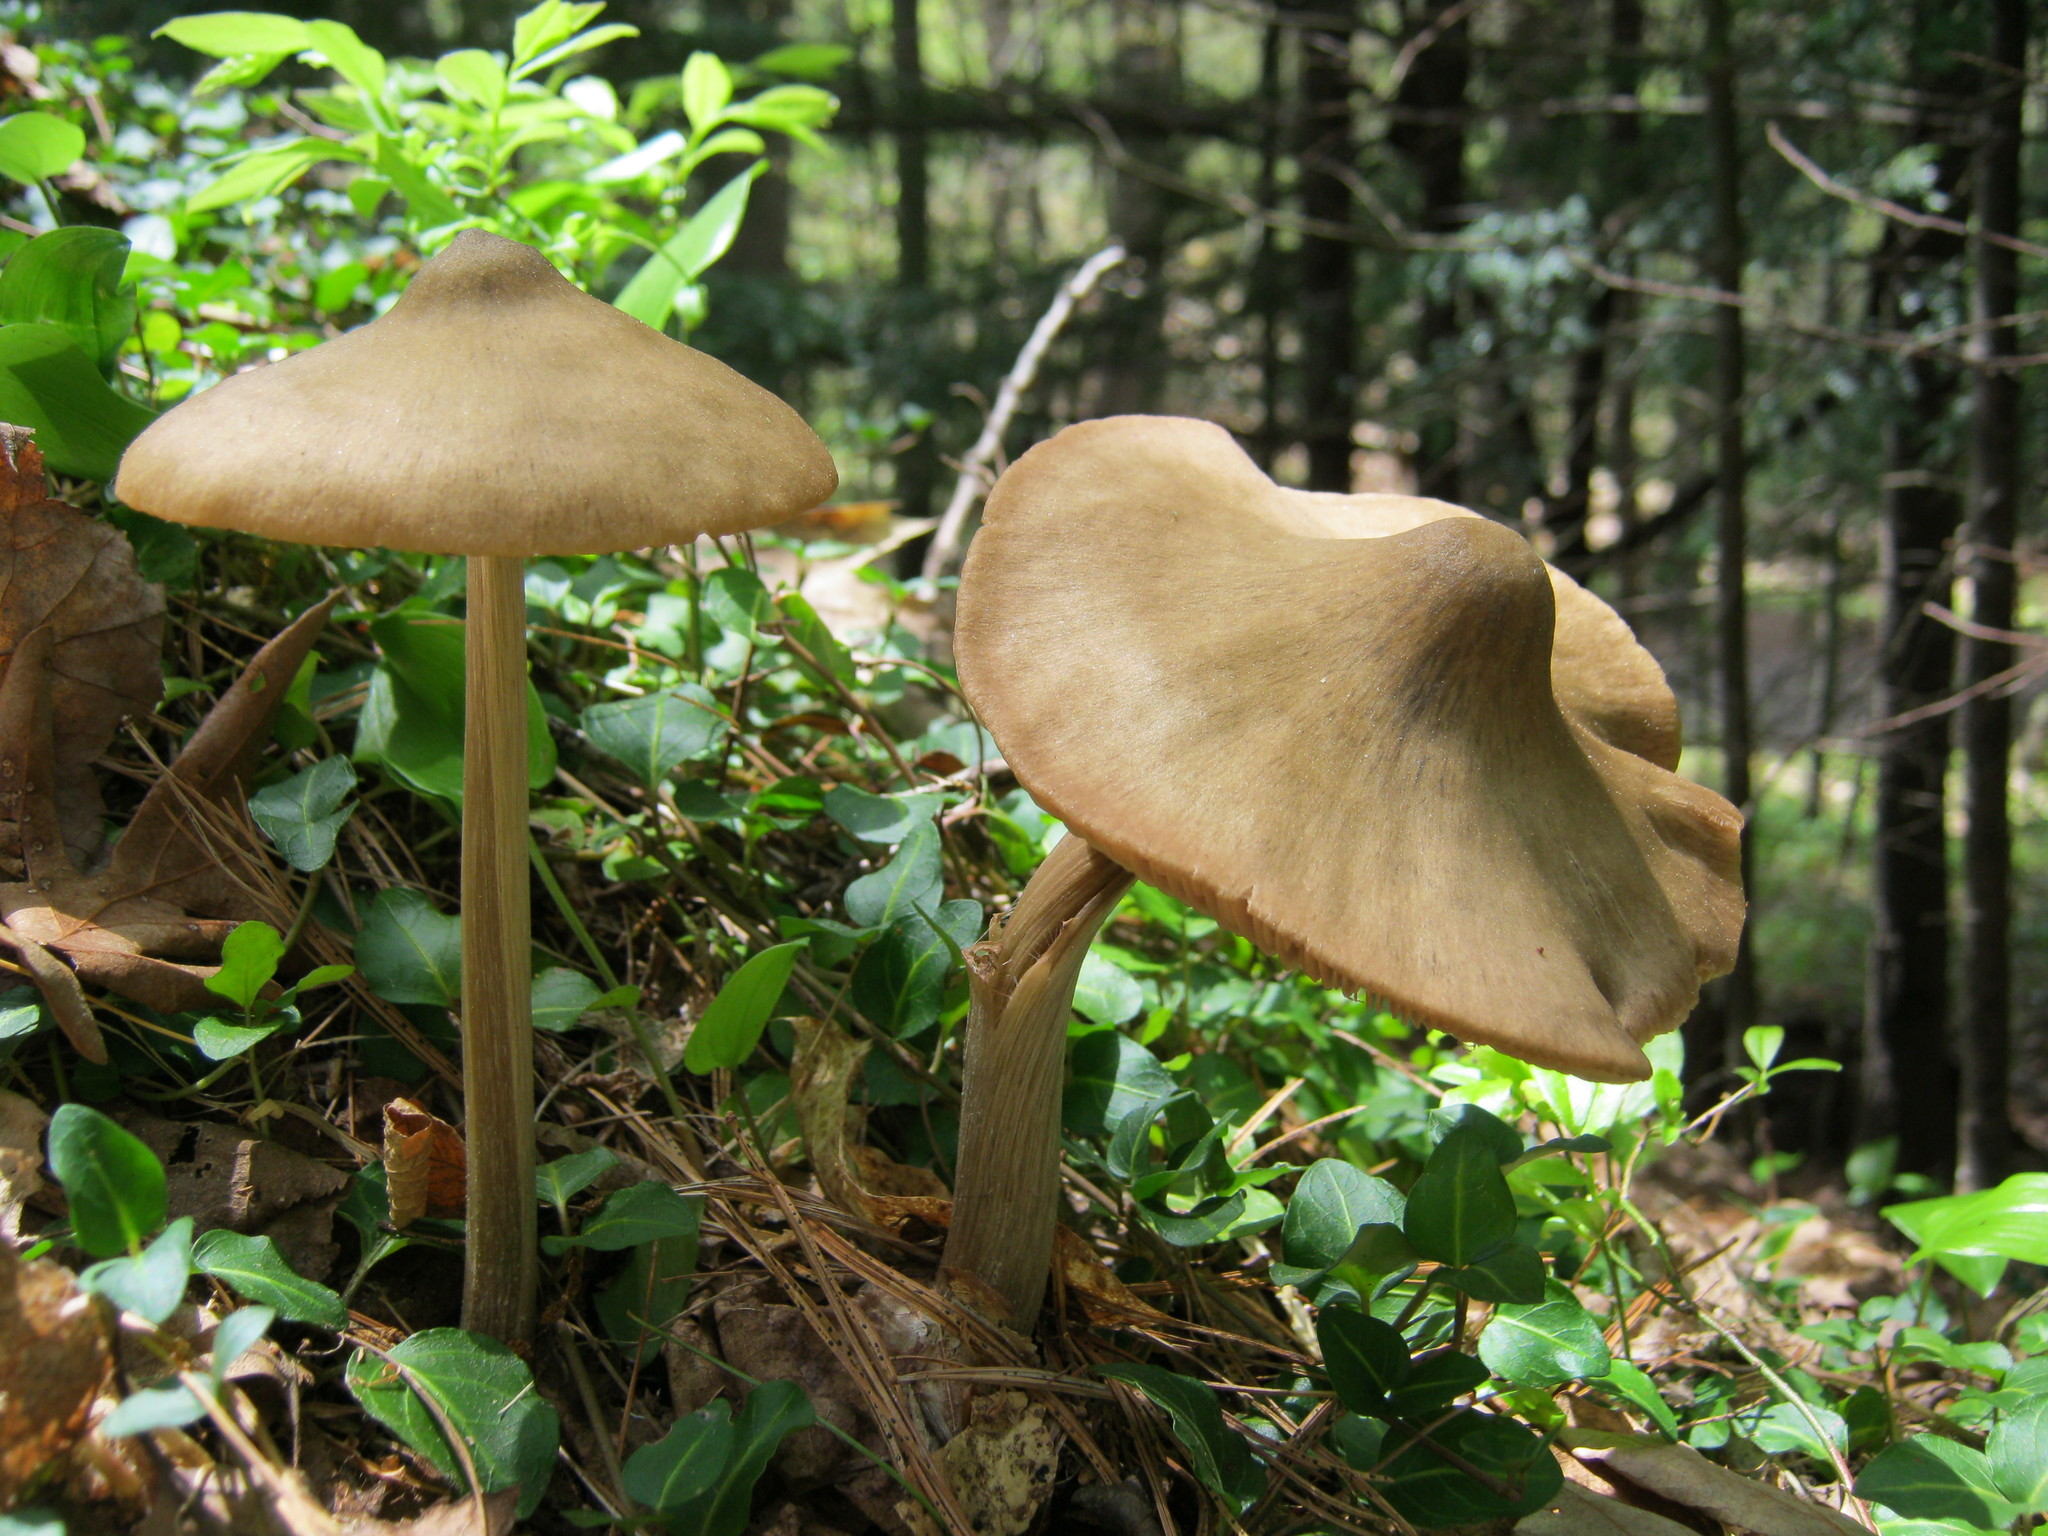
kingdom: Fungi
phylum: Basidiomycota
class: Agaricomycetes
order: Agaricales
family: Entolomataceae
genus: Entoloma
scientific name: Entoloma vernum
